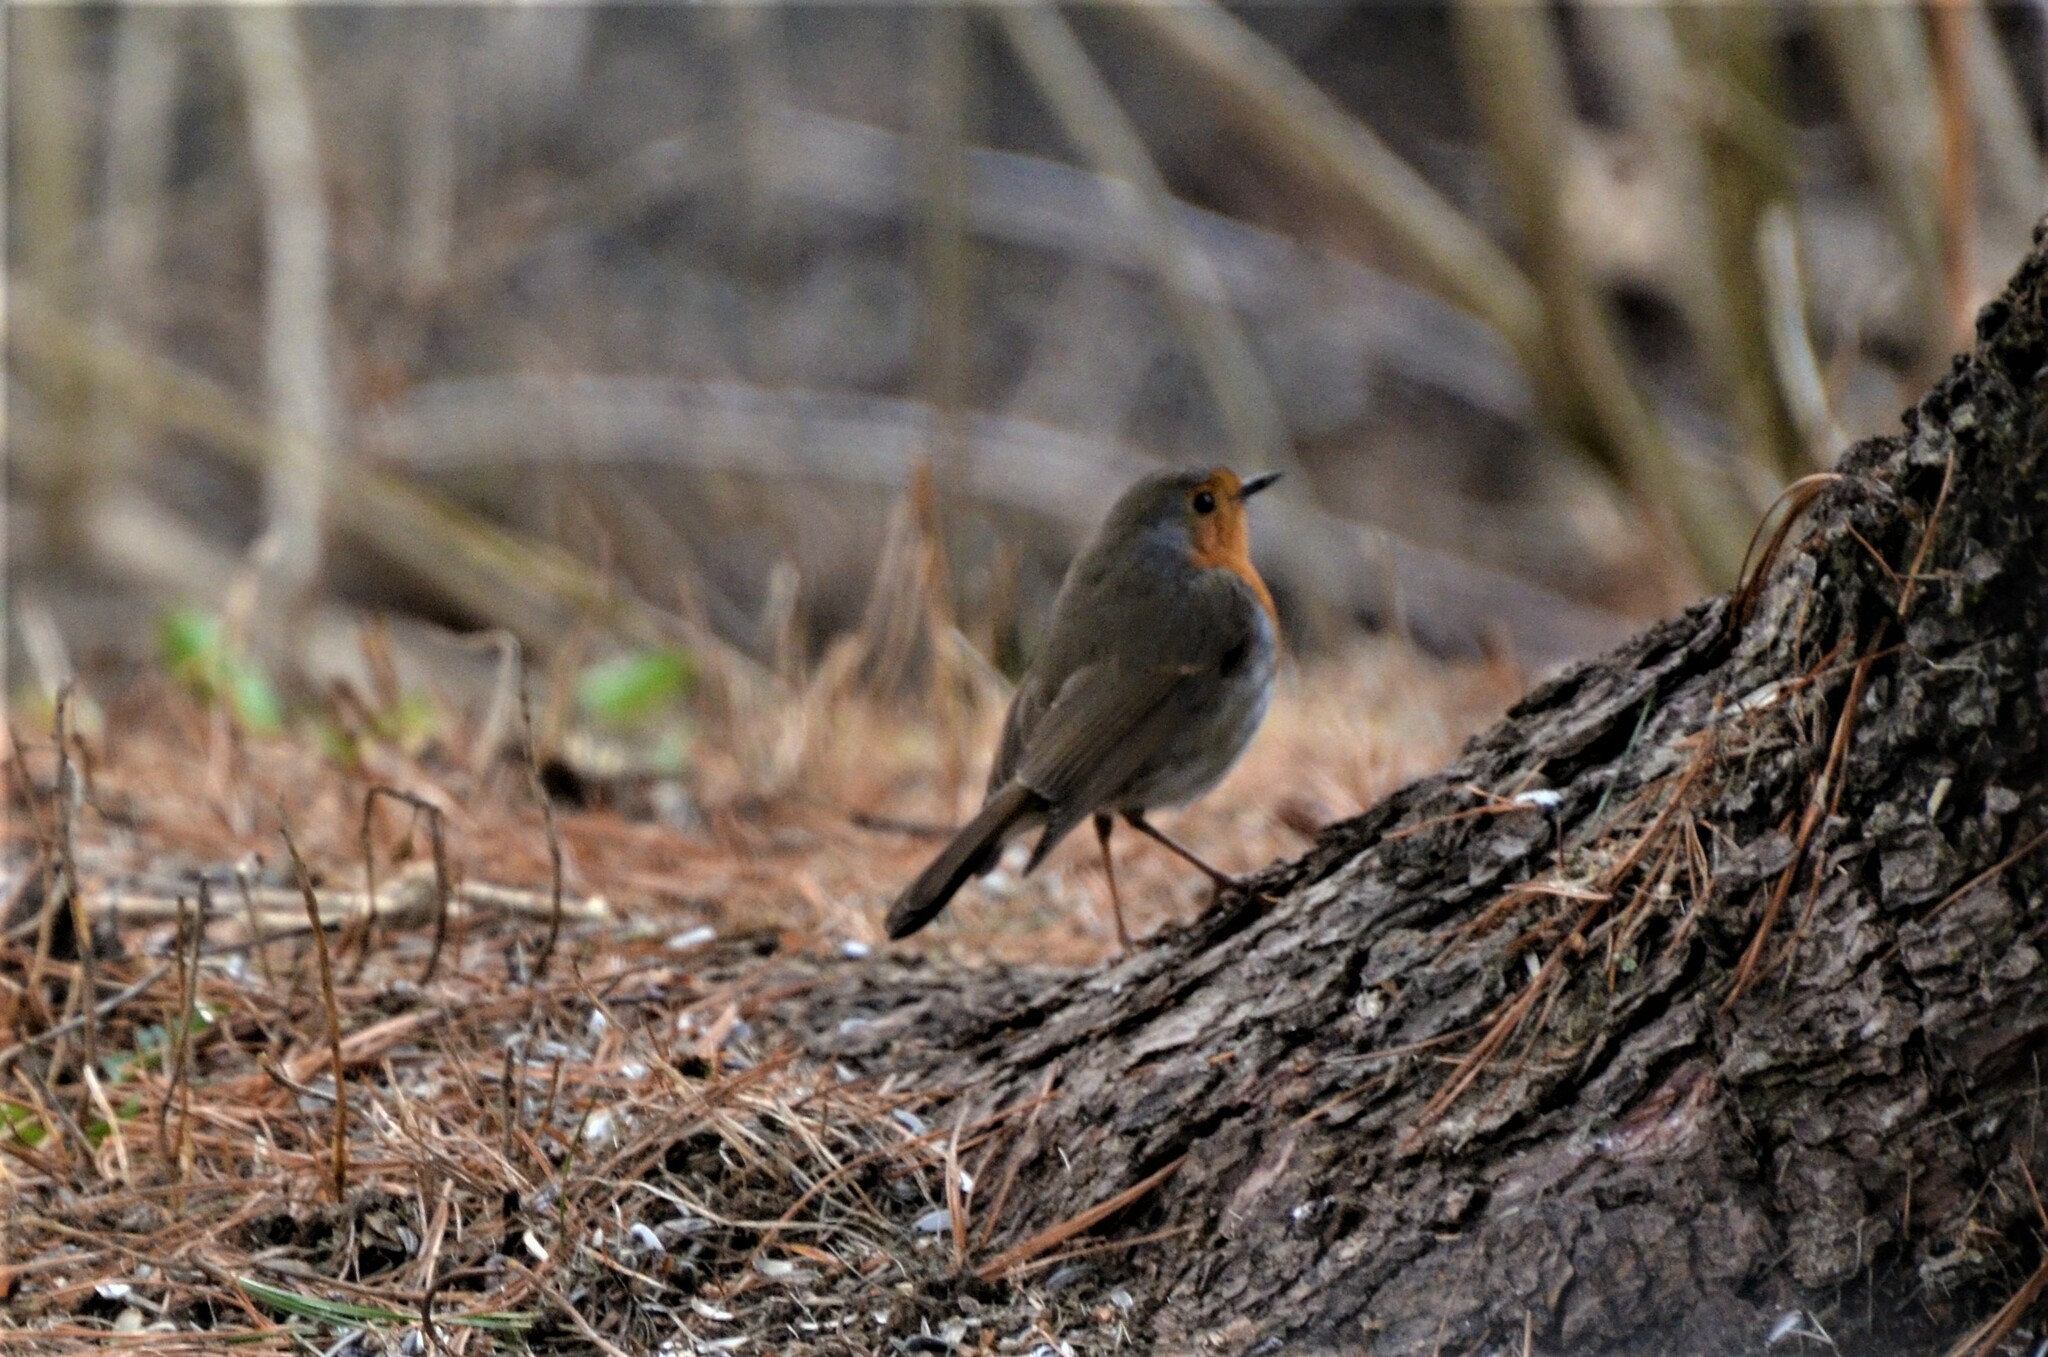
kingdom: Animalia
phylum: Chordata
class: Aves
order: Passeriformes
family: Muscicapidae
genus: Erithacus
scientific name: Erithacus rubecula
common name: European robin
